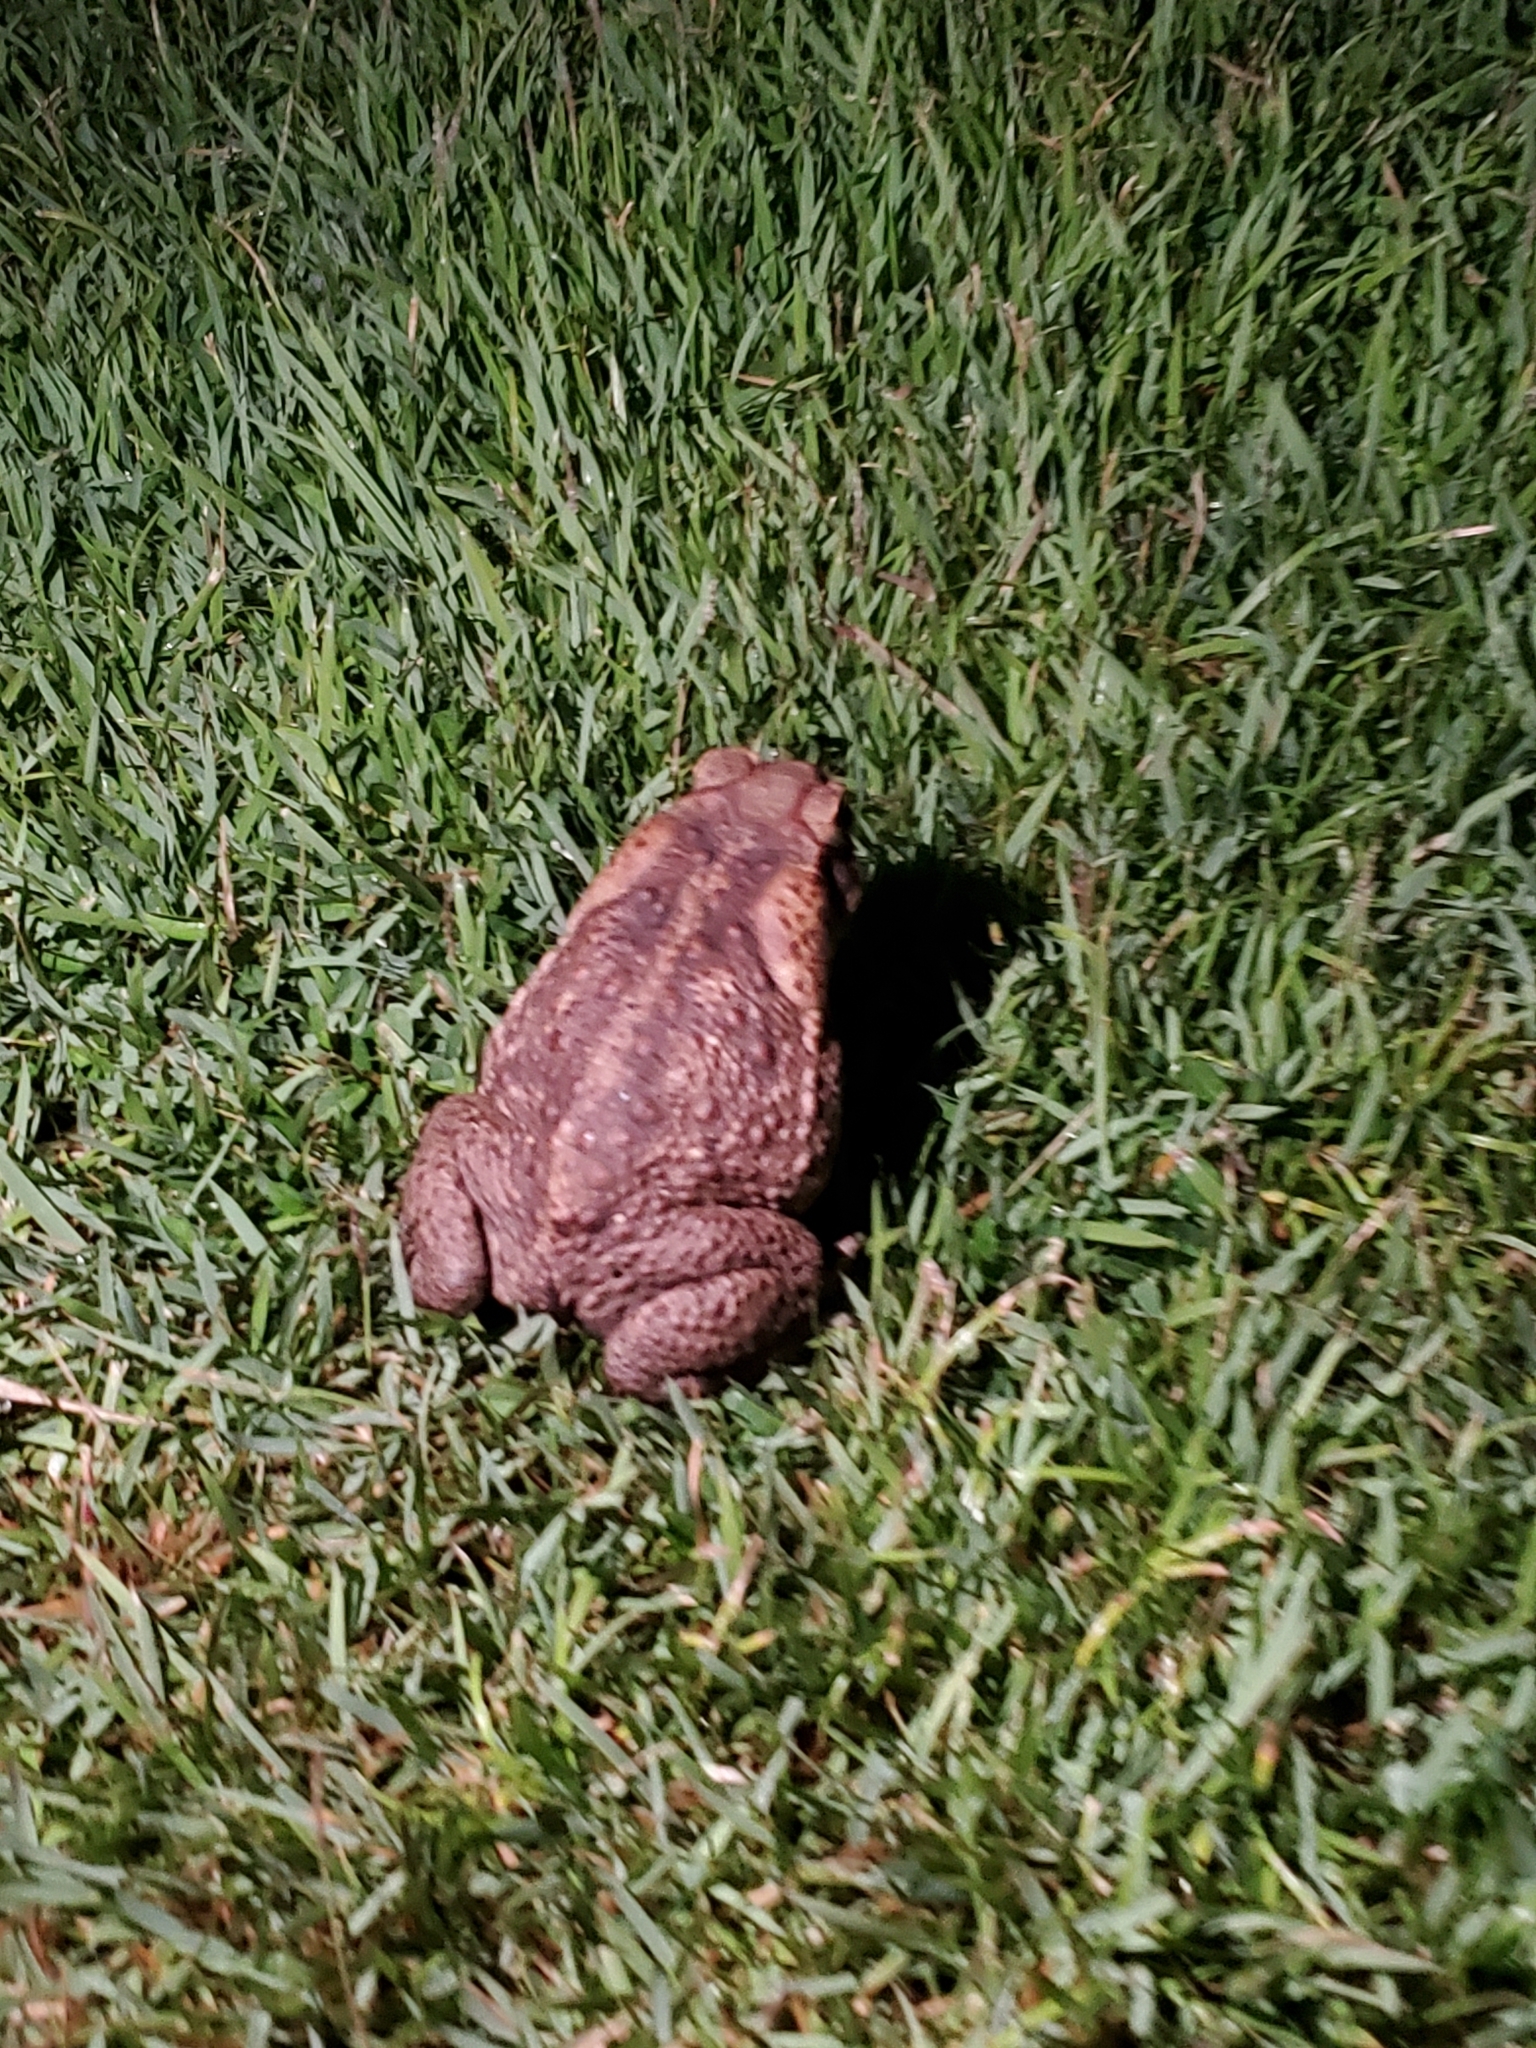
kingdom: Animalia
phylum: Chordata
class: Amphibia
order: Anura
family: Bufonidae
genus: Rhinella
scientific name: Rhinella marina
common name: Cane toad
